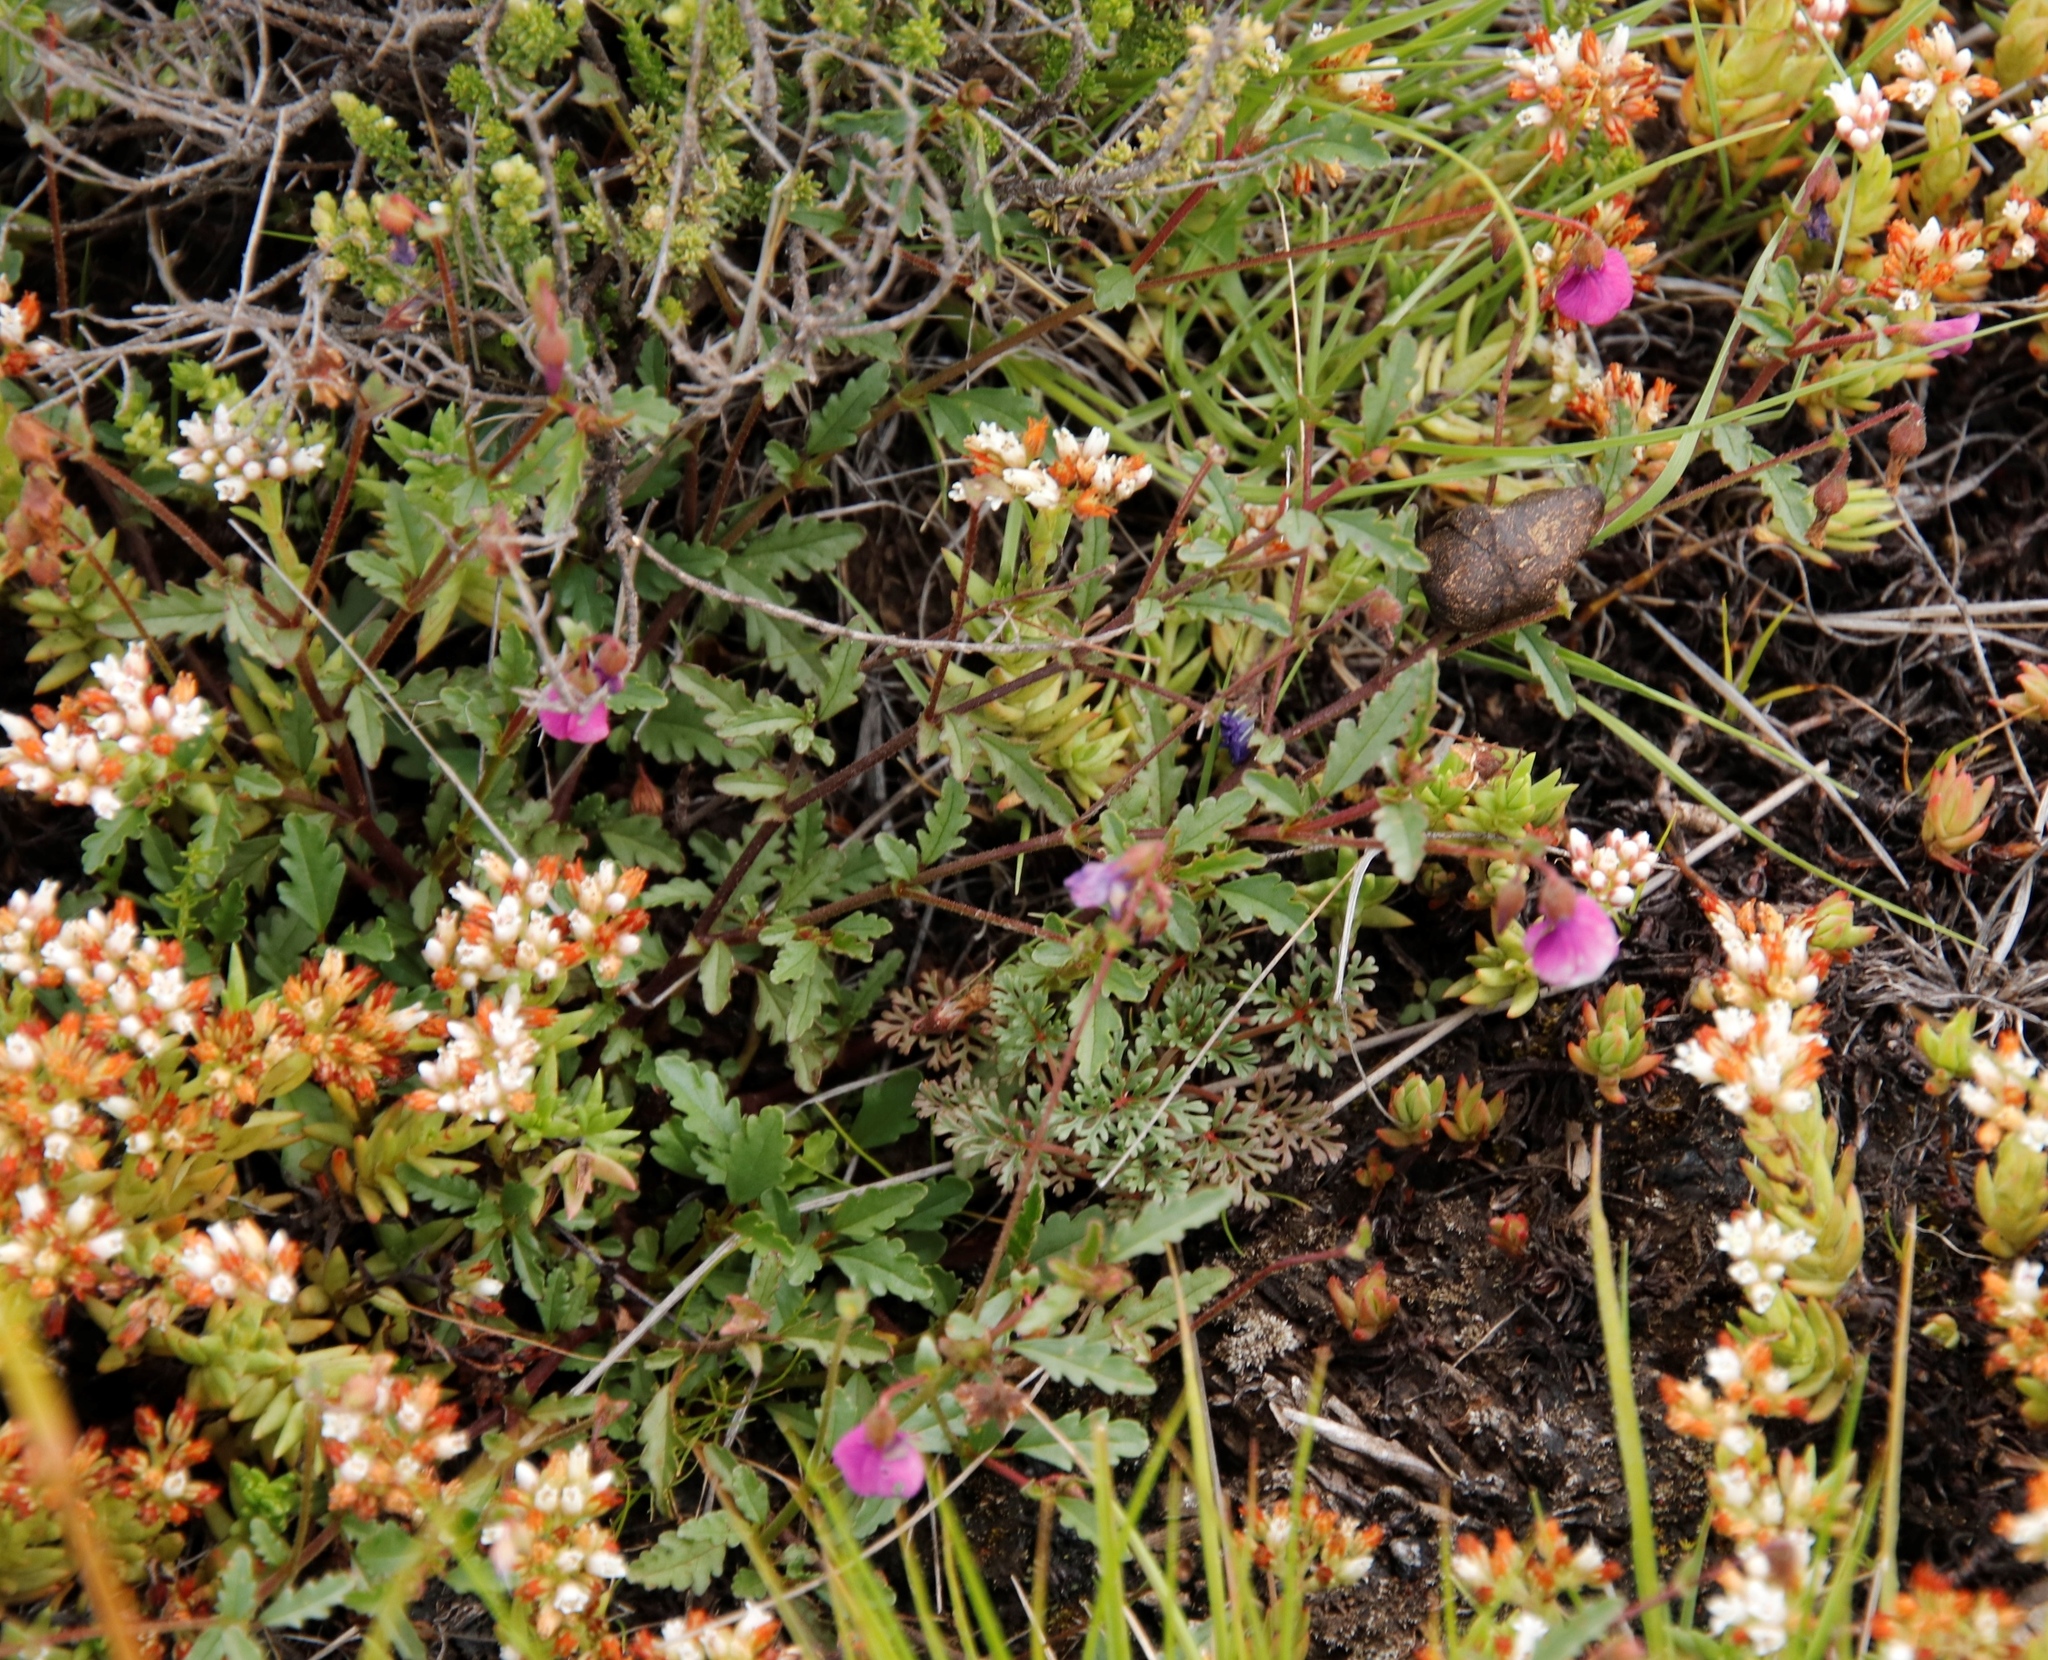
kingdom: Plantae
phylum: Tracheophyta
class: Magnoliopsida
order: Malvales
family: Malvaceae
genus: Hermannia
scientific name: Hermannia coccocarpa
